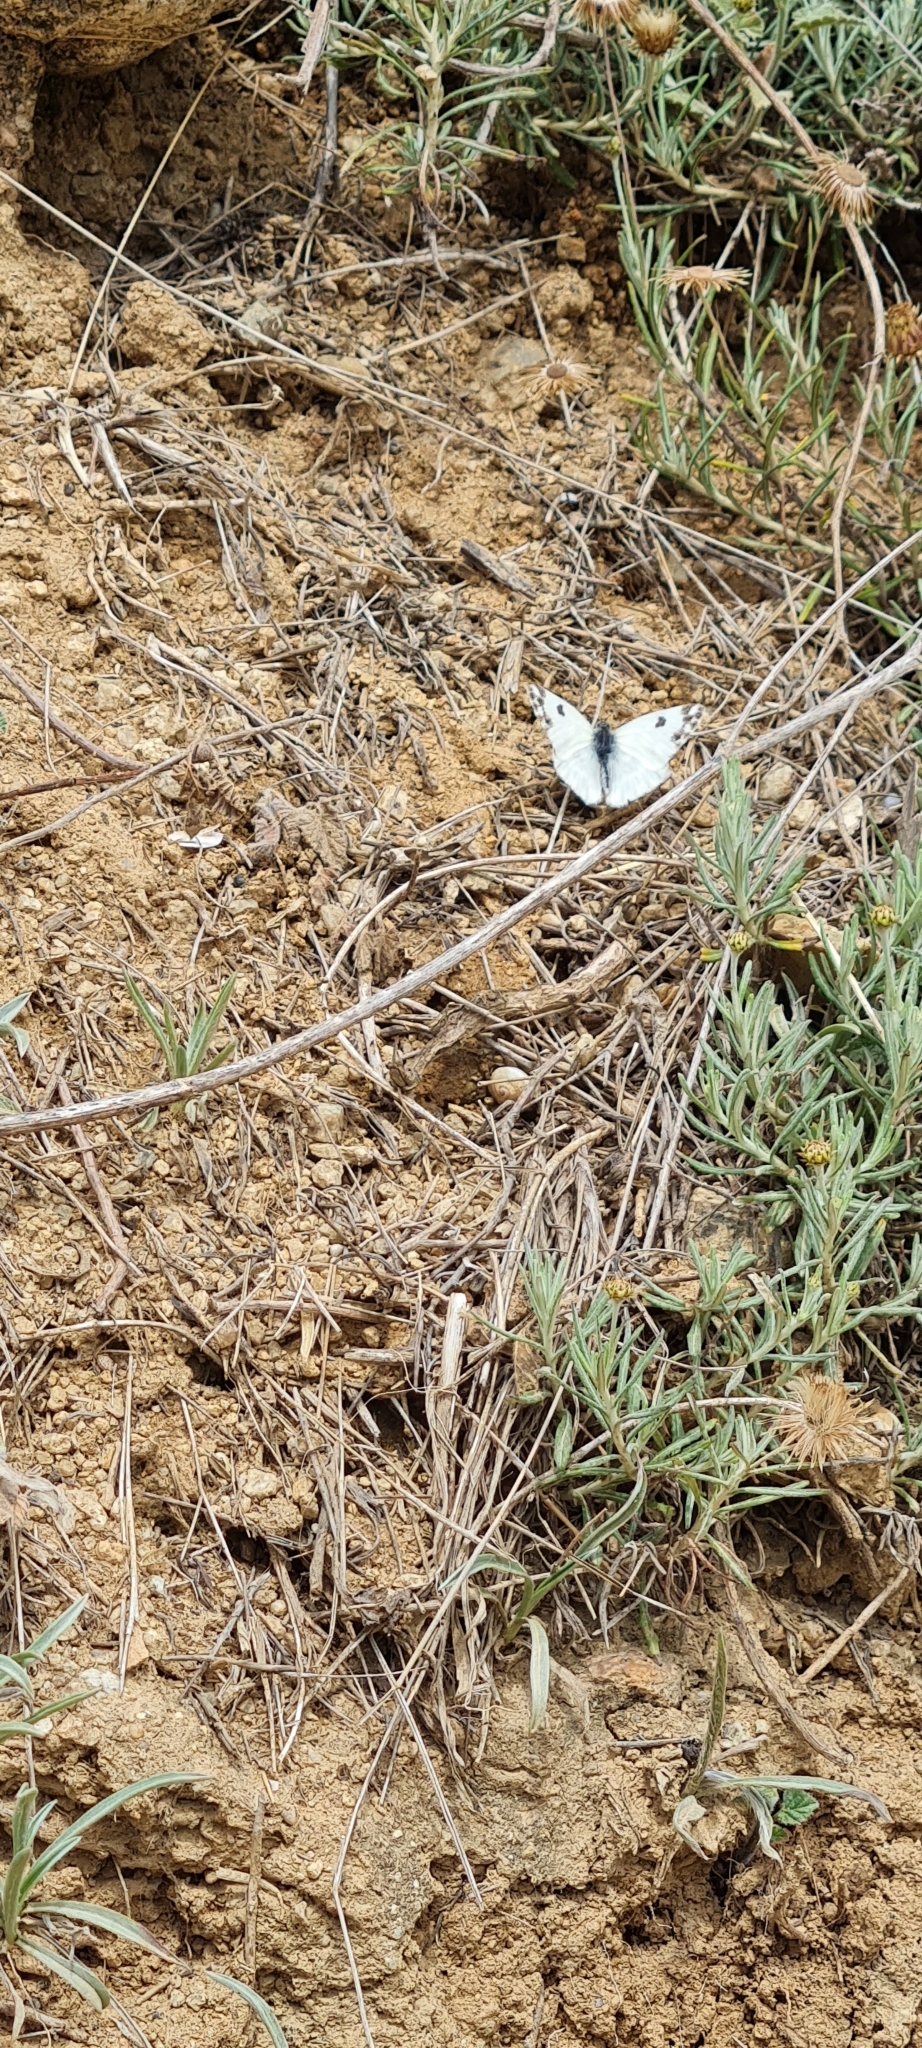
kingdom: Animalia
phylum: Arthropoda
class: Insecta
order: Lepidoptera
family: Pieridae
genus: Pontia
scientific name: Pontia daplidice
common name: Bath white
